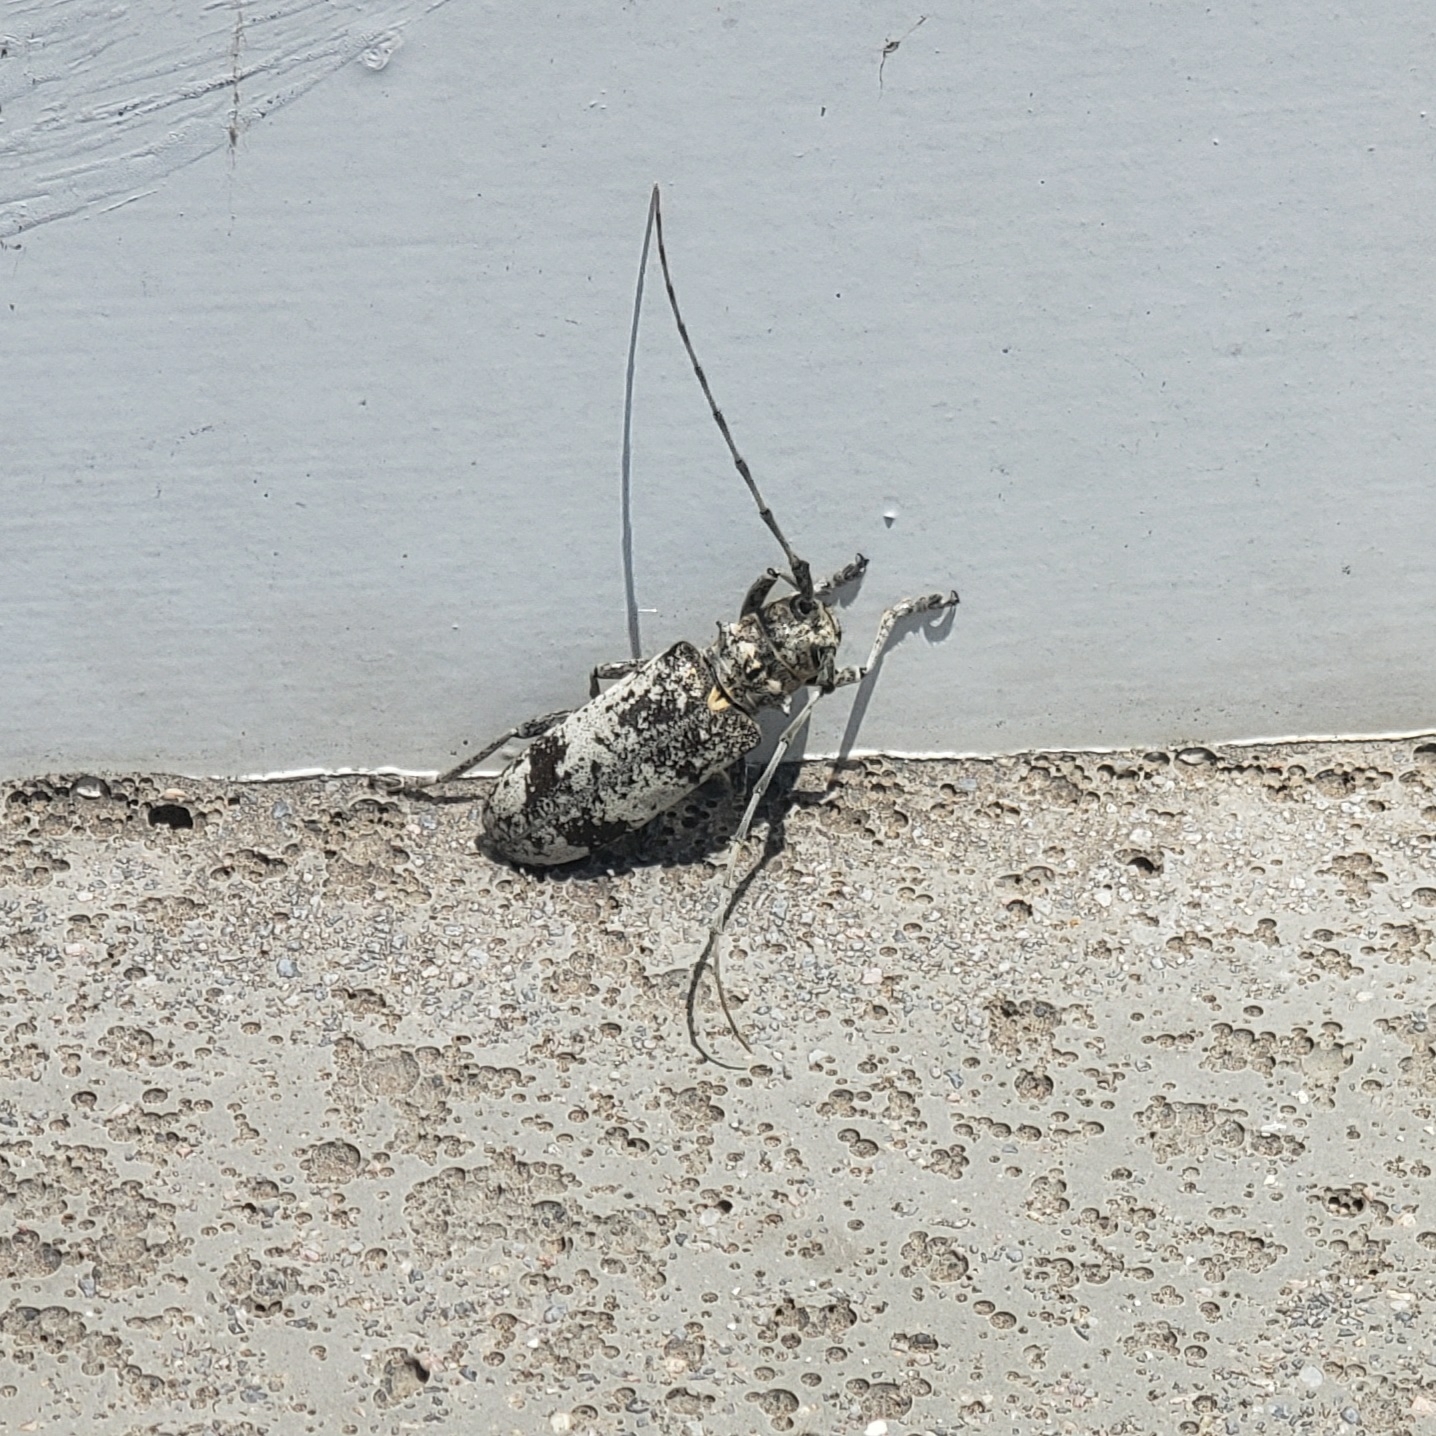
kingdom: Animalia
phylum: Arthropoda
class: Insecta
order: Coleoptera
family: Cerambycidae
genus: Goes
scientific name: Goes tigrinus
